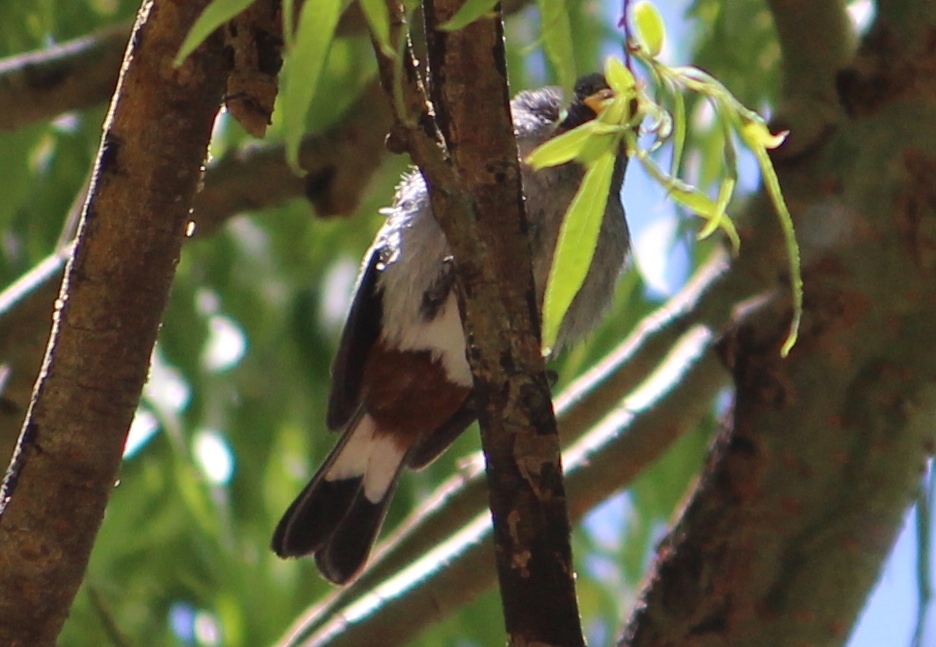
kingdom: Animalia
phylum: Chordata
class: Aves
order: Passeriformes
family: Thraupidae
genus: Catamenia
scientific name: Catamenia analis
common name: Band-tailed seedeater
